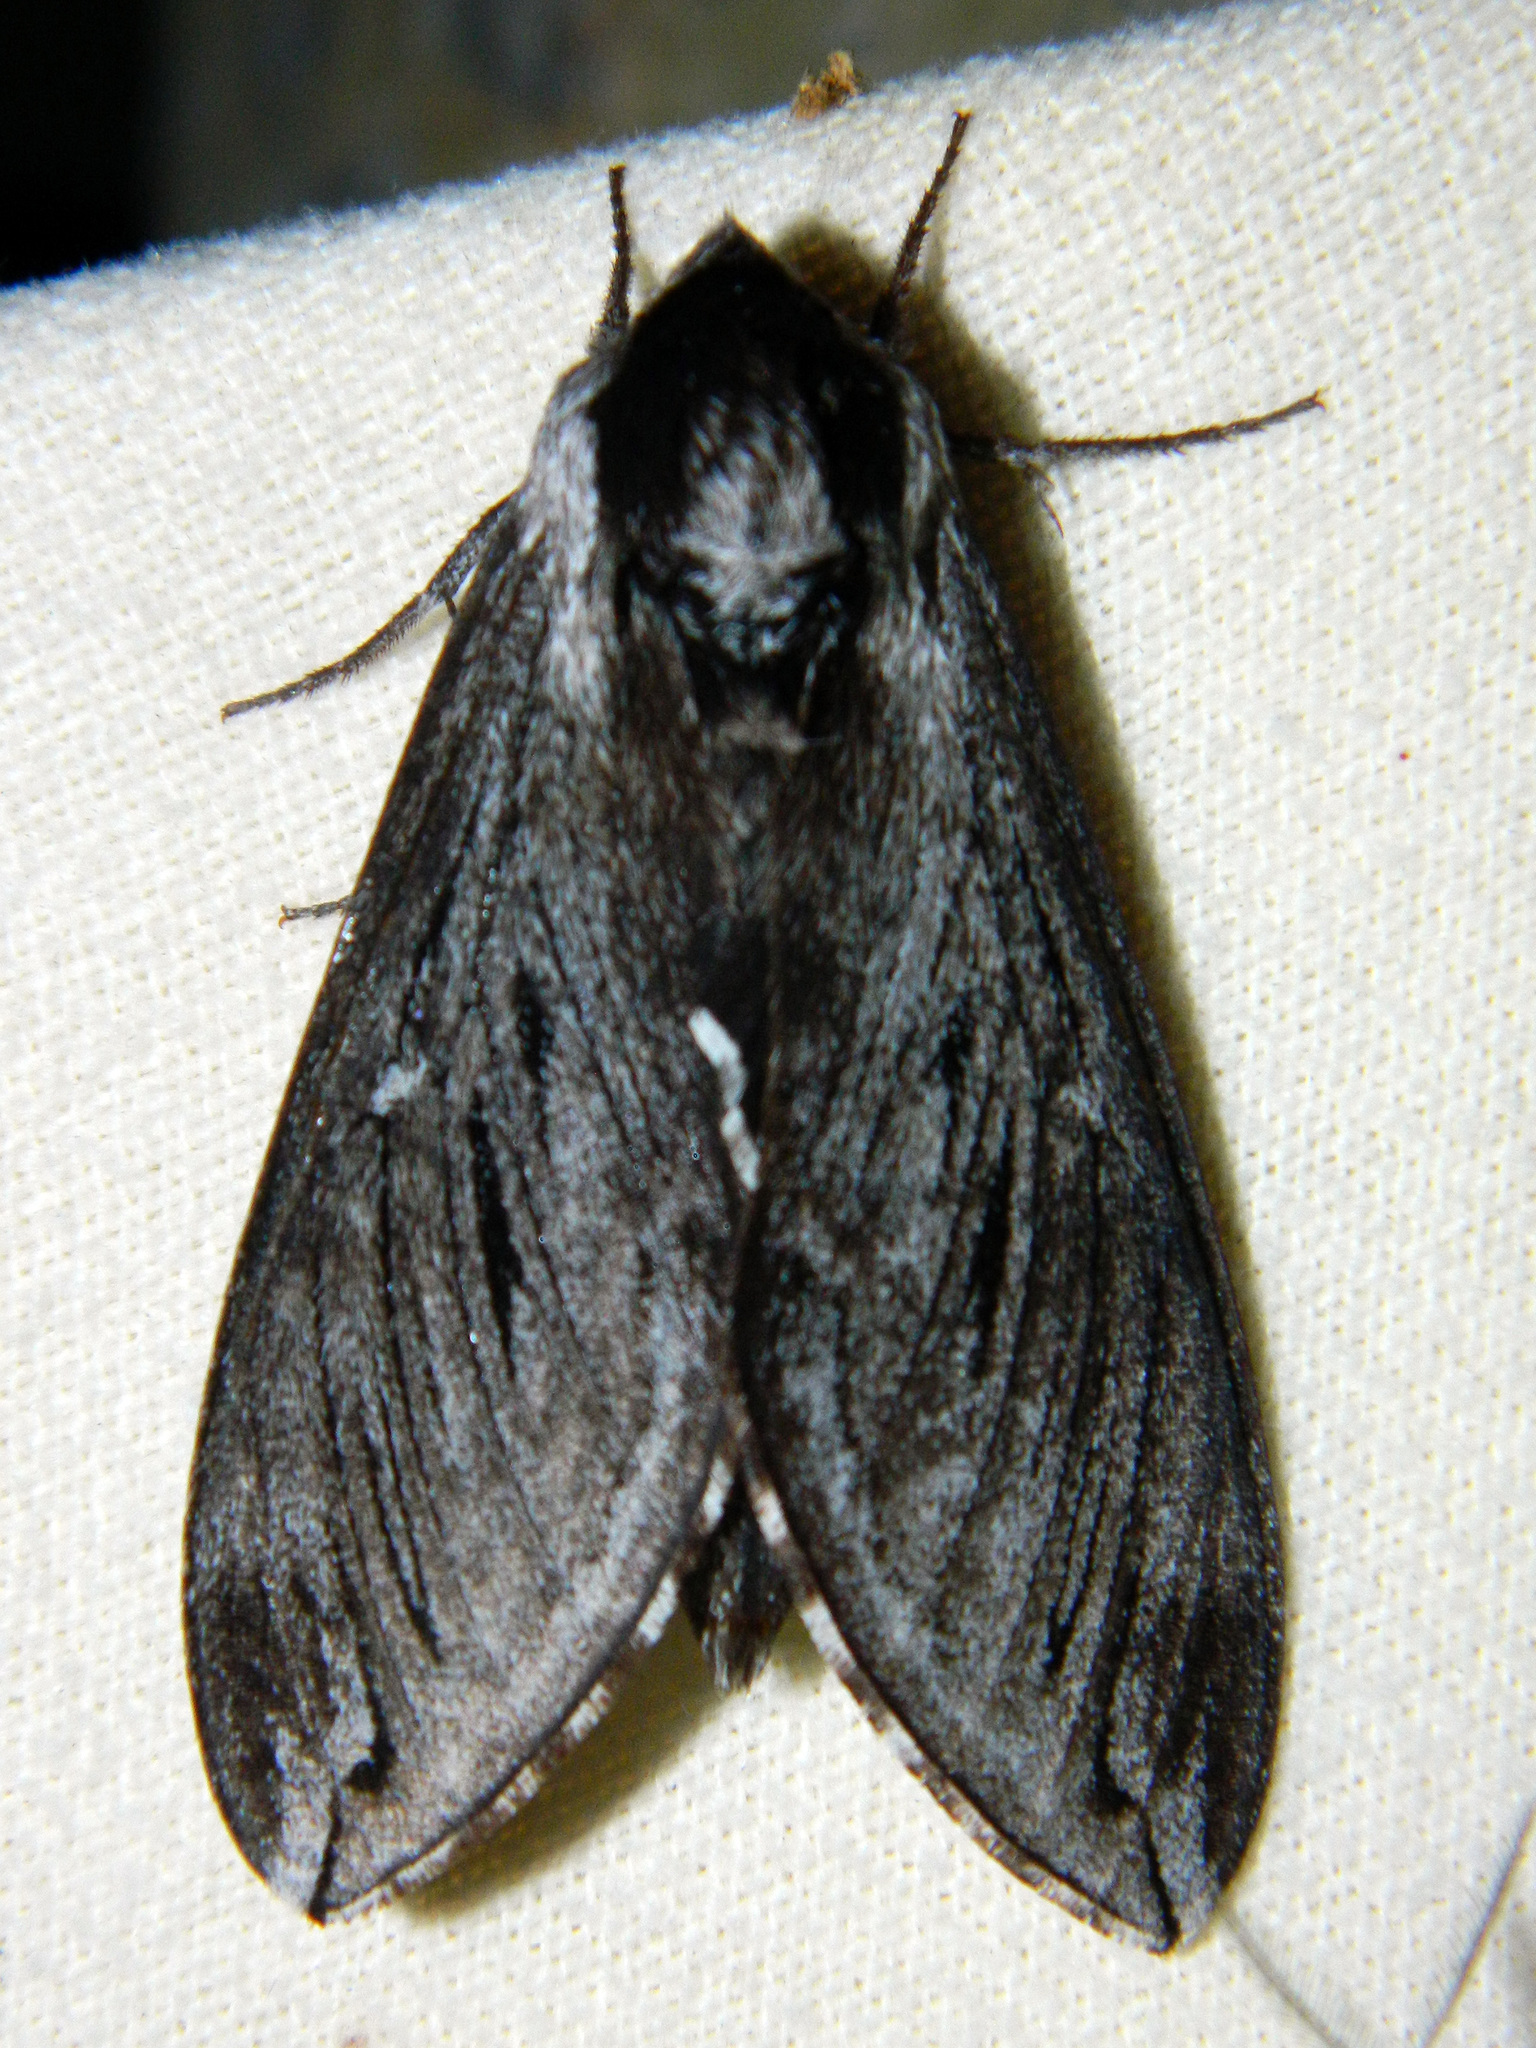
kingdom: Animalia
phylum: Arthropoda
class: Insecta
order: Lepidoptera
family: Sphingidae
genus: Sphinx
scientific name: Sphinx poecila
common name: Northern apple sphinx
